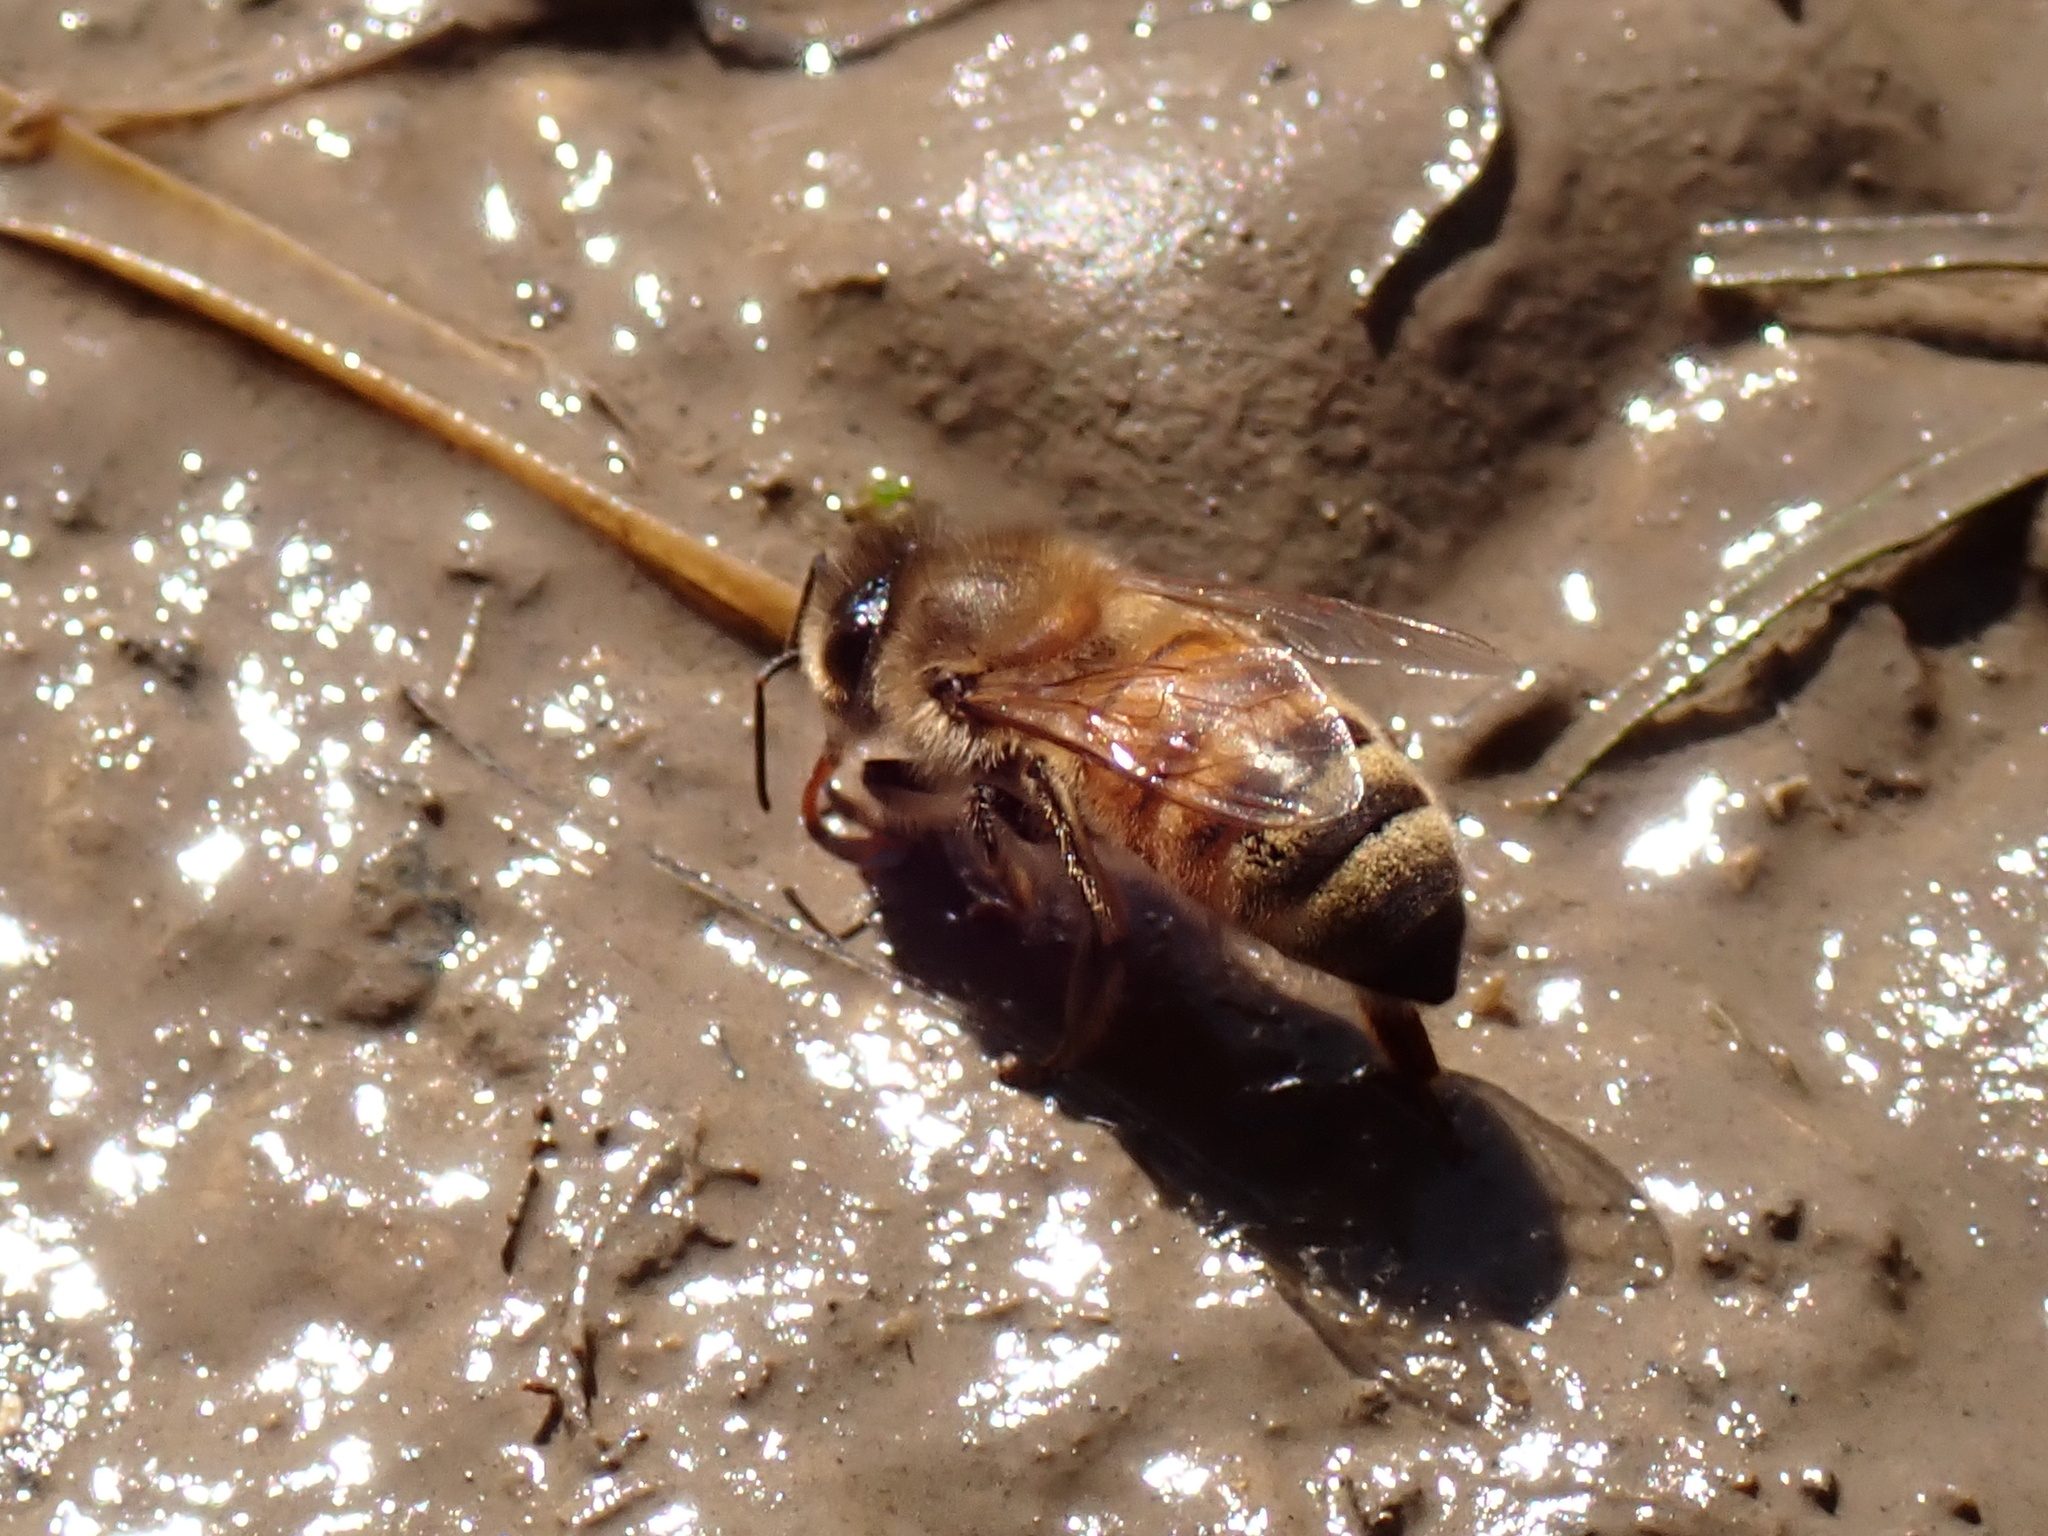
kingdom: Animalia
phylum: Arthropoda
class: Insecta
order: Hymenoptera
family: Apidae
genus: Apis
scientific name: Apis mellifera
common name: Honey bee
